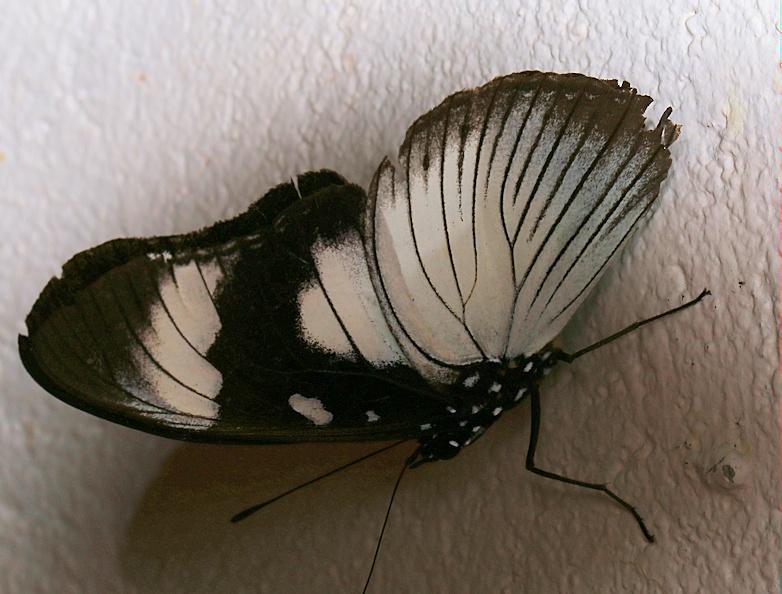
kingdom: Animalia
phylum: Arthropoda
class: Insecta
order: Lepidoptera
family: Nymphalidae
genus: Hypolimnas
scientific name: Hypolimnas dubius
